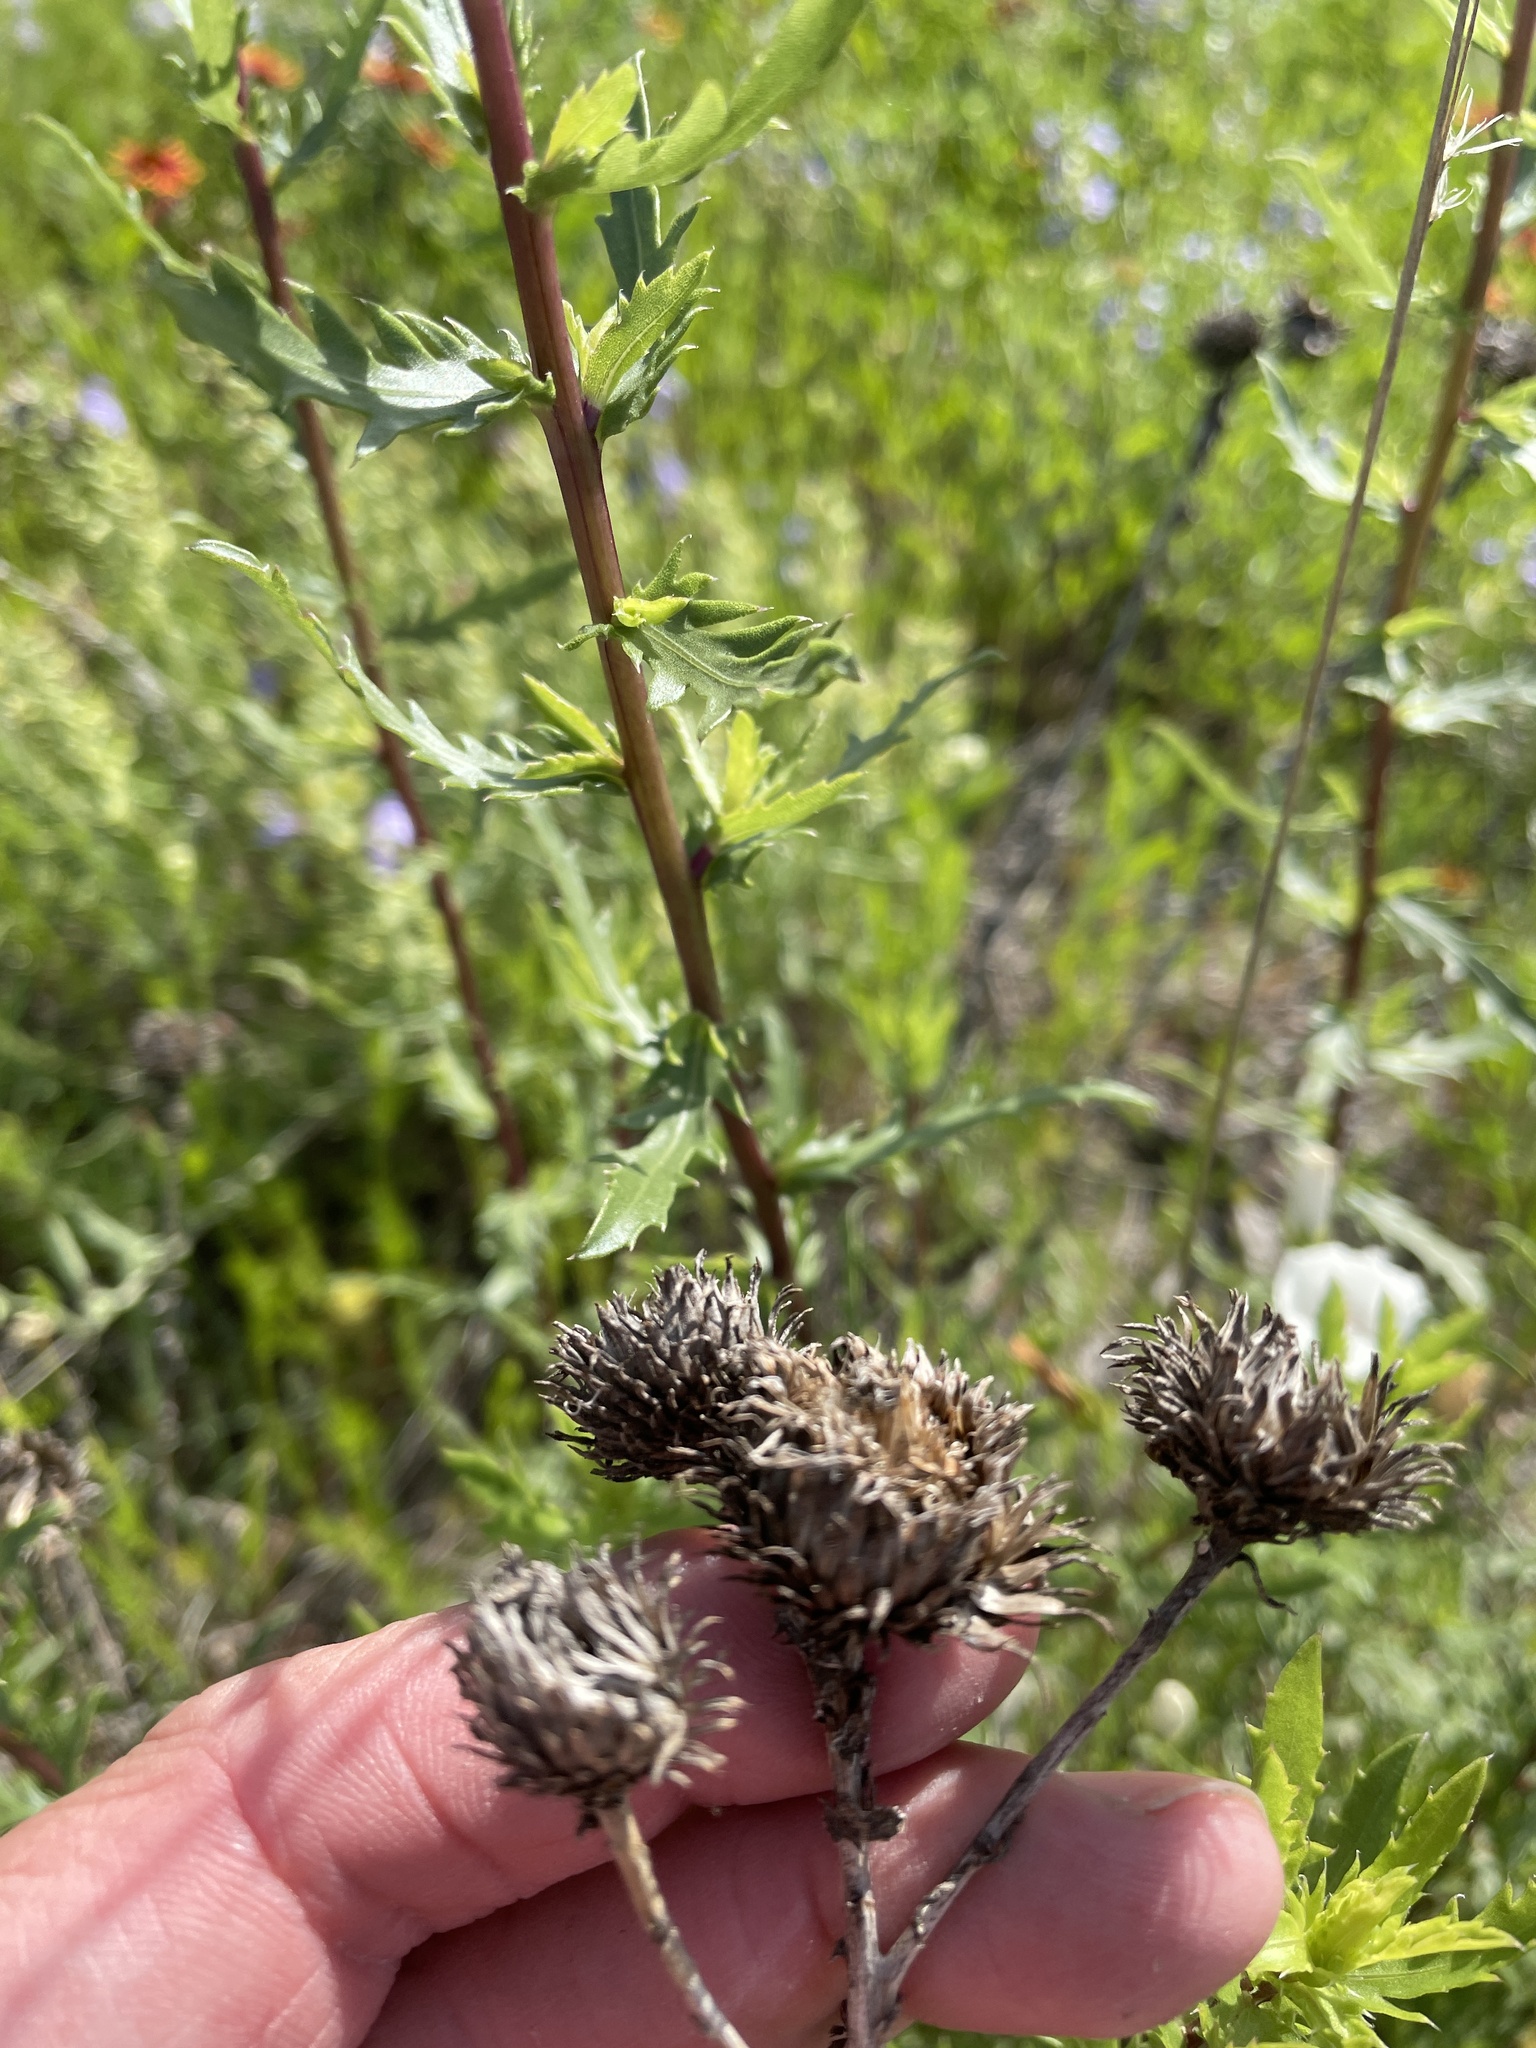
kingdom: Plantae
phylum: Tracheophyta
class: Magnoliopsida
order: Asterales
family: Asteraceae
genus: Grindelia
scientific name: Grindelia lanceolata
